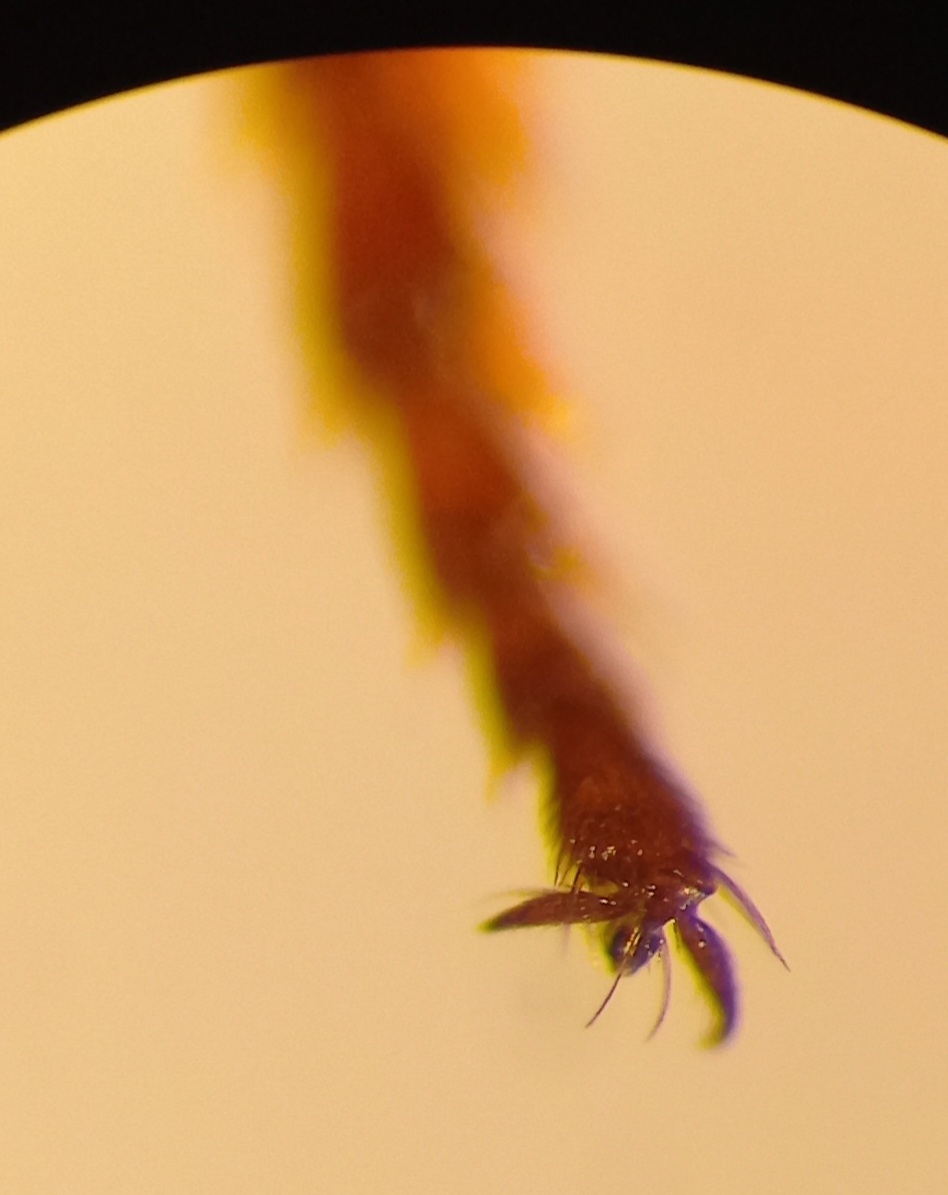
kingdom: Animalia
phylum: Arthropoda
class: Insecta
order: Hymenoptera
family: Megachilidae
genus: Osmia
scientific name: Osmia bicolor
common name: Red-tailed mason bee
